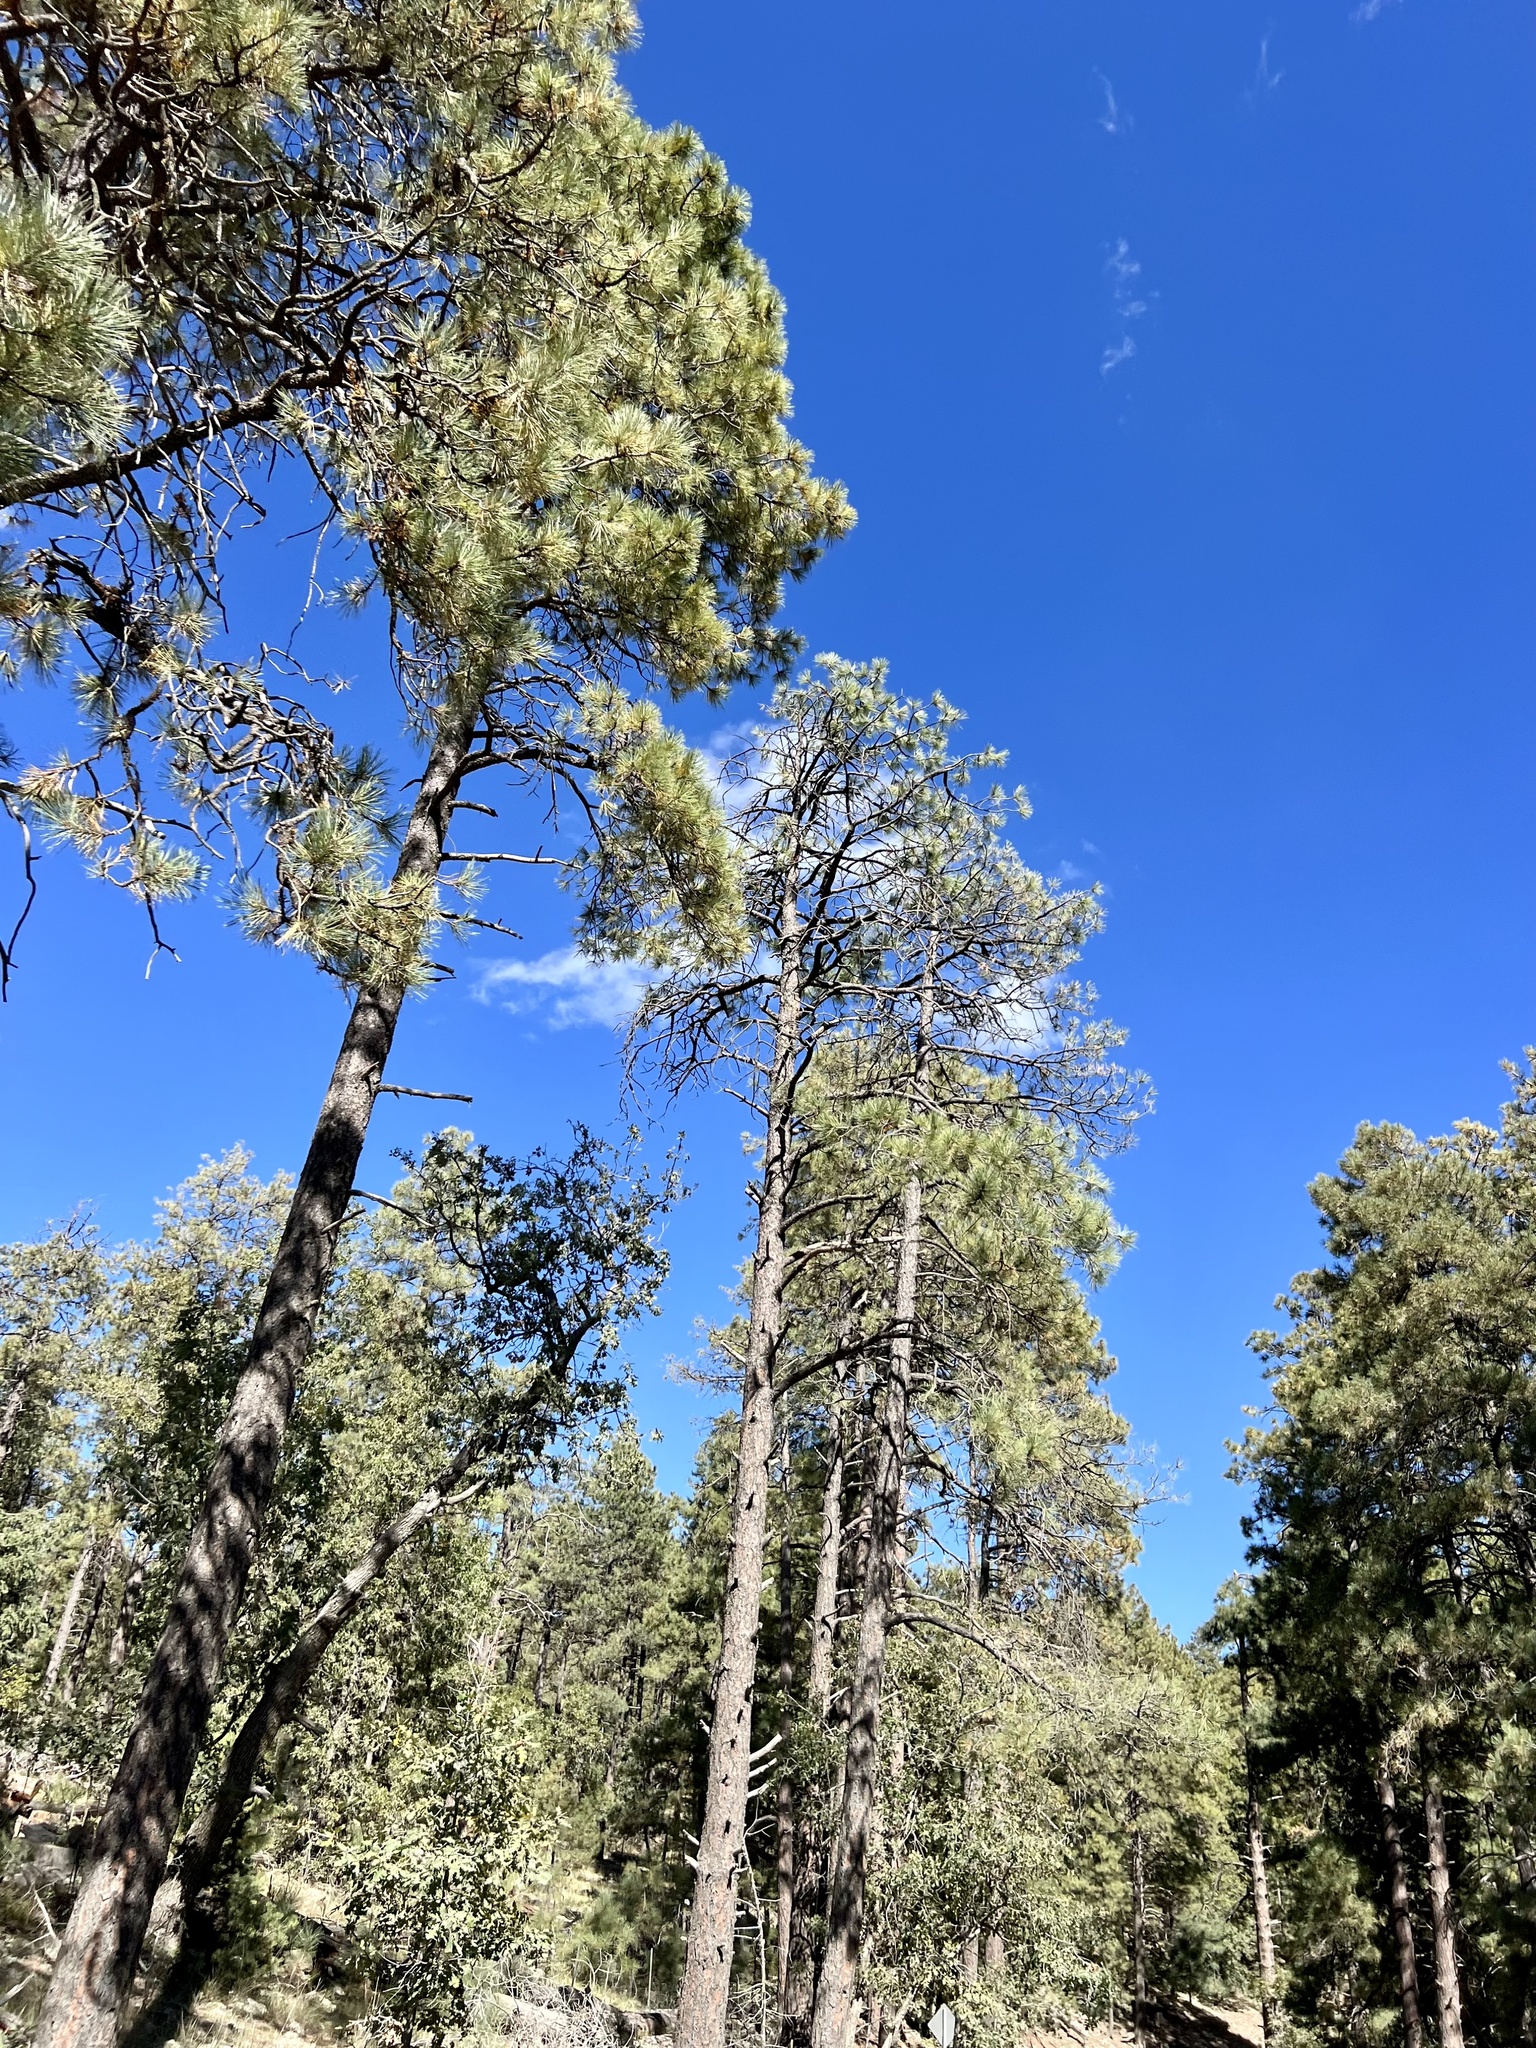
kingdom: Plantae
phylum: Tracheophyta
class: Pinopsida
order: Pinales
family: Pinaceae
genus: Pinus
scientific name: Pinus ponderosa
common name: Western yellow-pine
